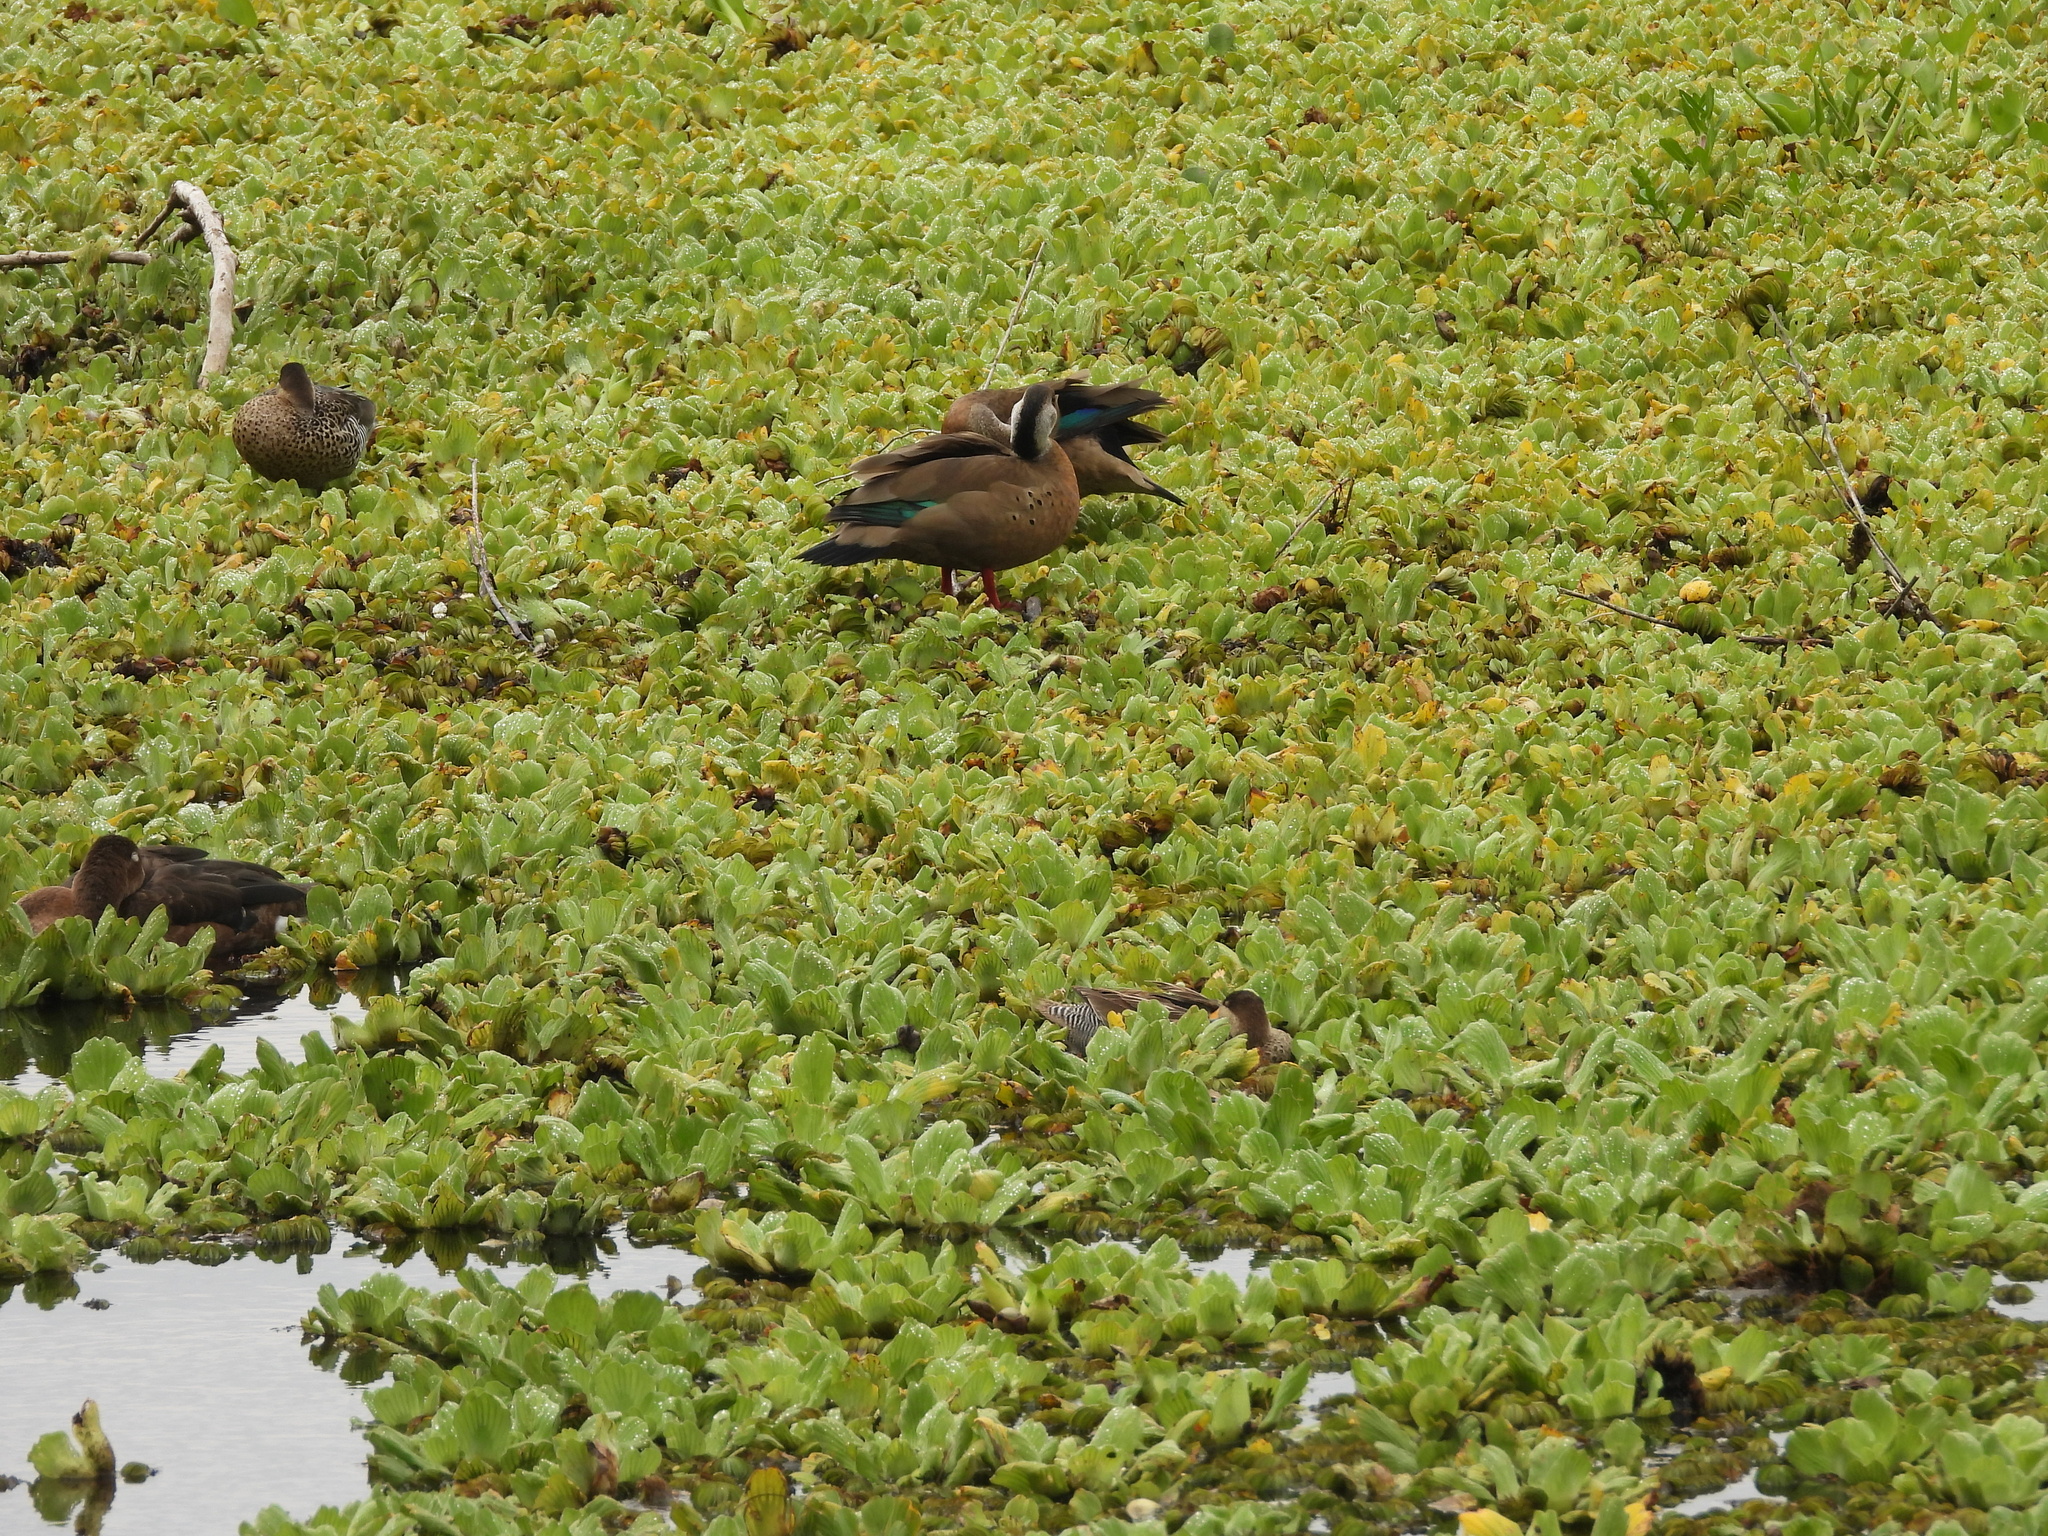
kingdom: Animalia
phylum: Chordata
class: Aves
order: Anseriformes
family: Anatidae
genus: Amazonetta
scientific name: Amazonetta brasiliensis
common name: Brazilian teal
